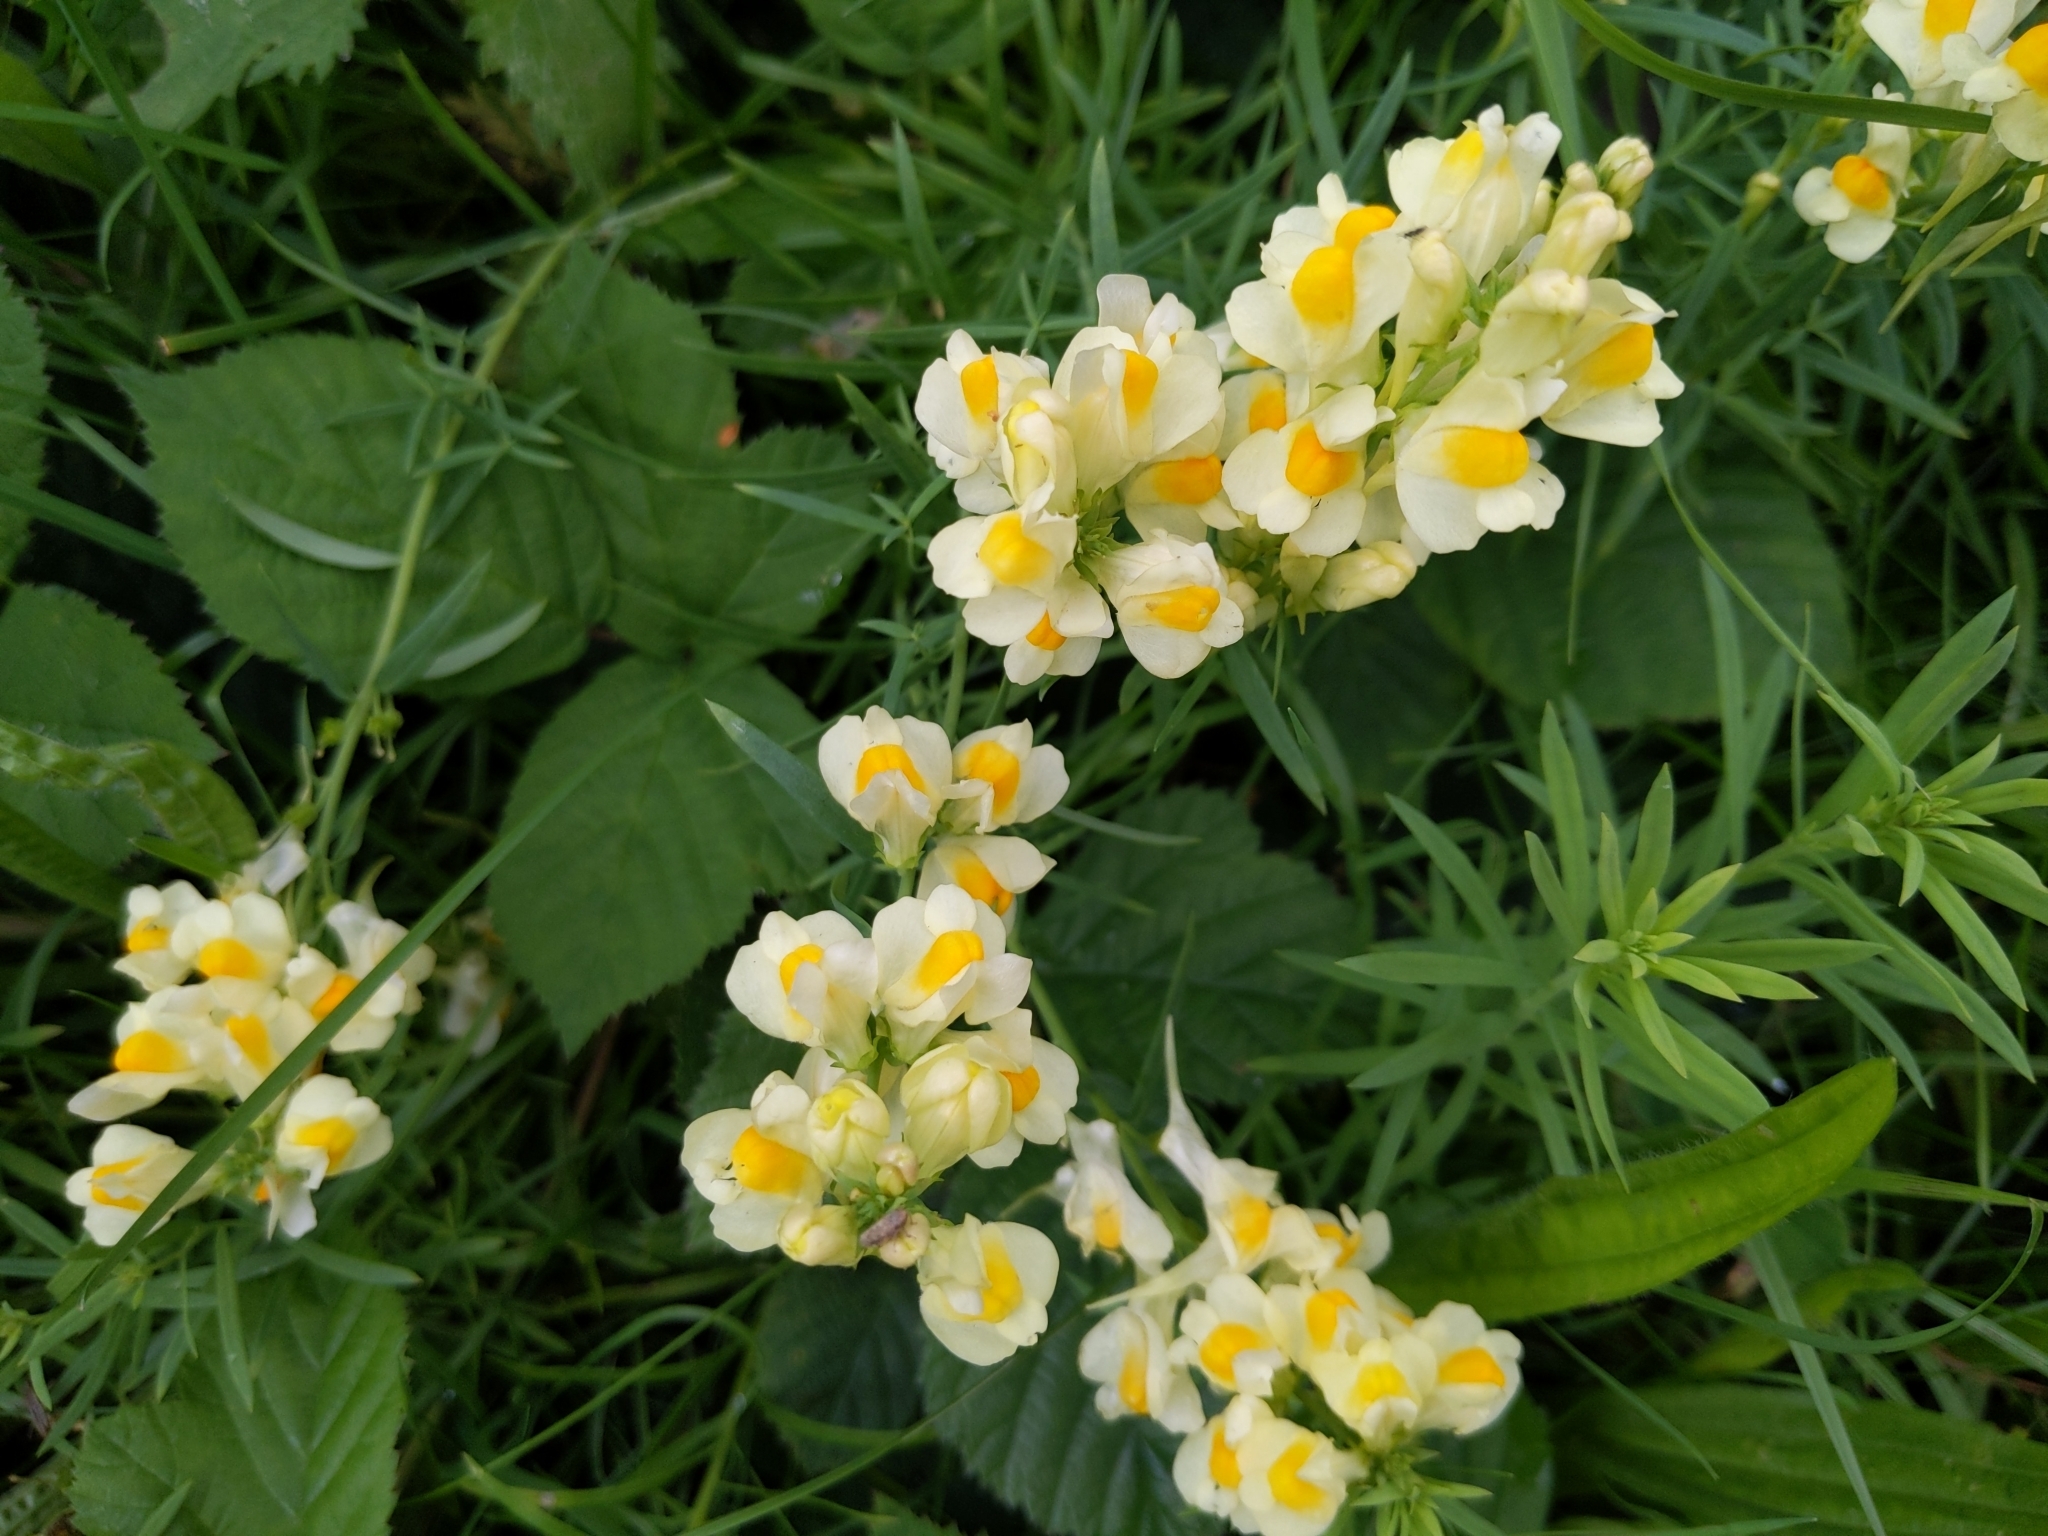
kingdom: Plantae
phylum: Tracheophyta
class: Magnoliopsida
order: Lamiales
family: Plantaginaceae
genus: Linaria
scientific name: Linaria vulgaris
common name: Butter and eggs
